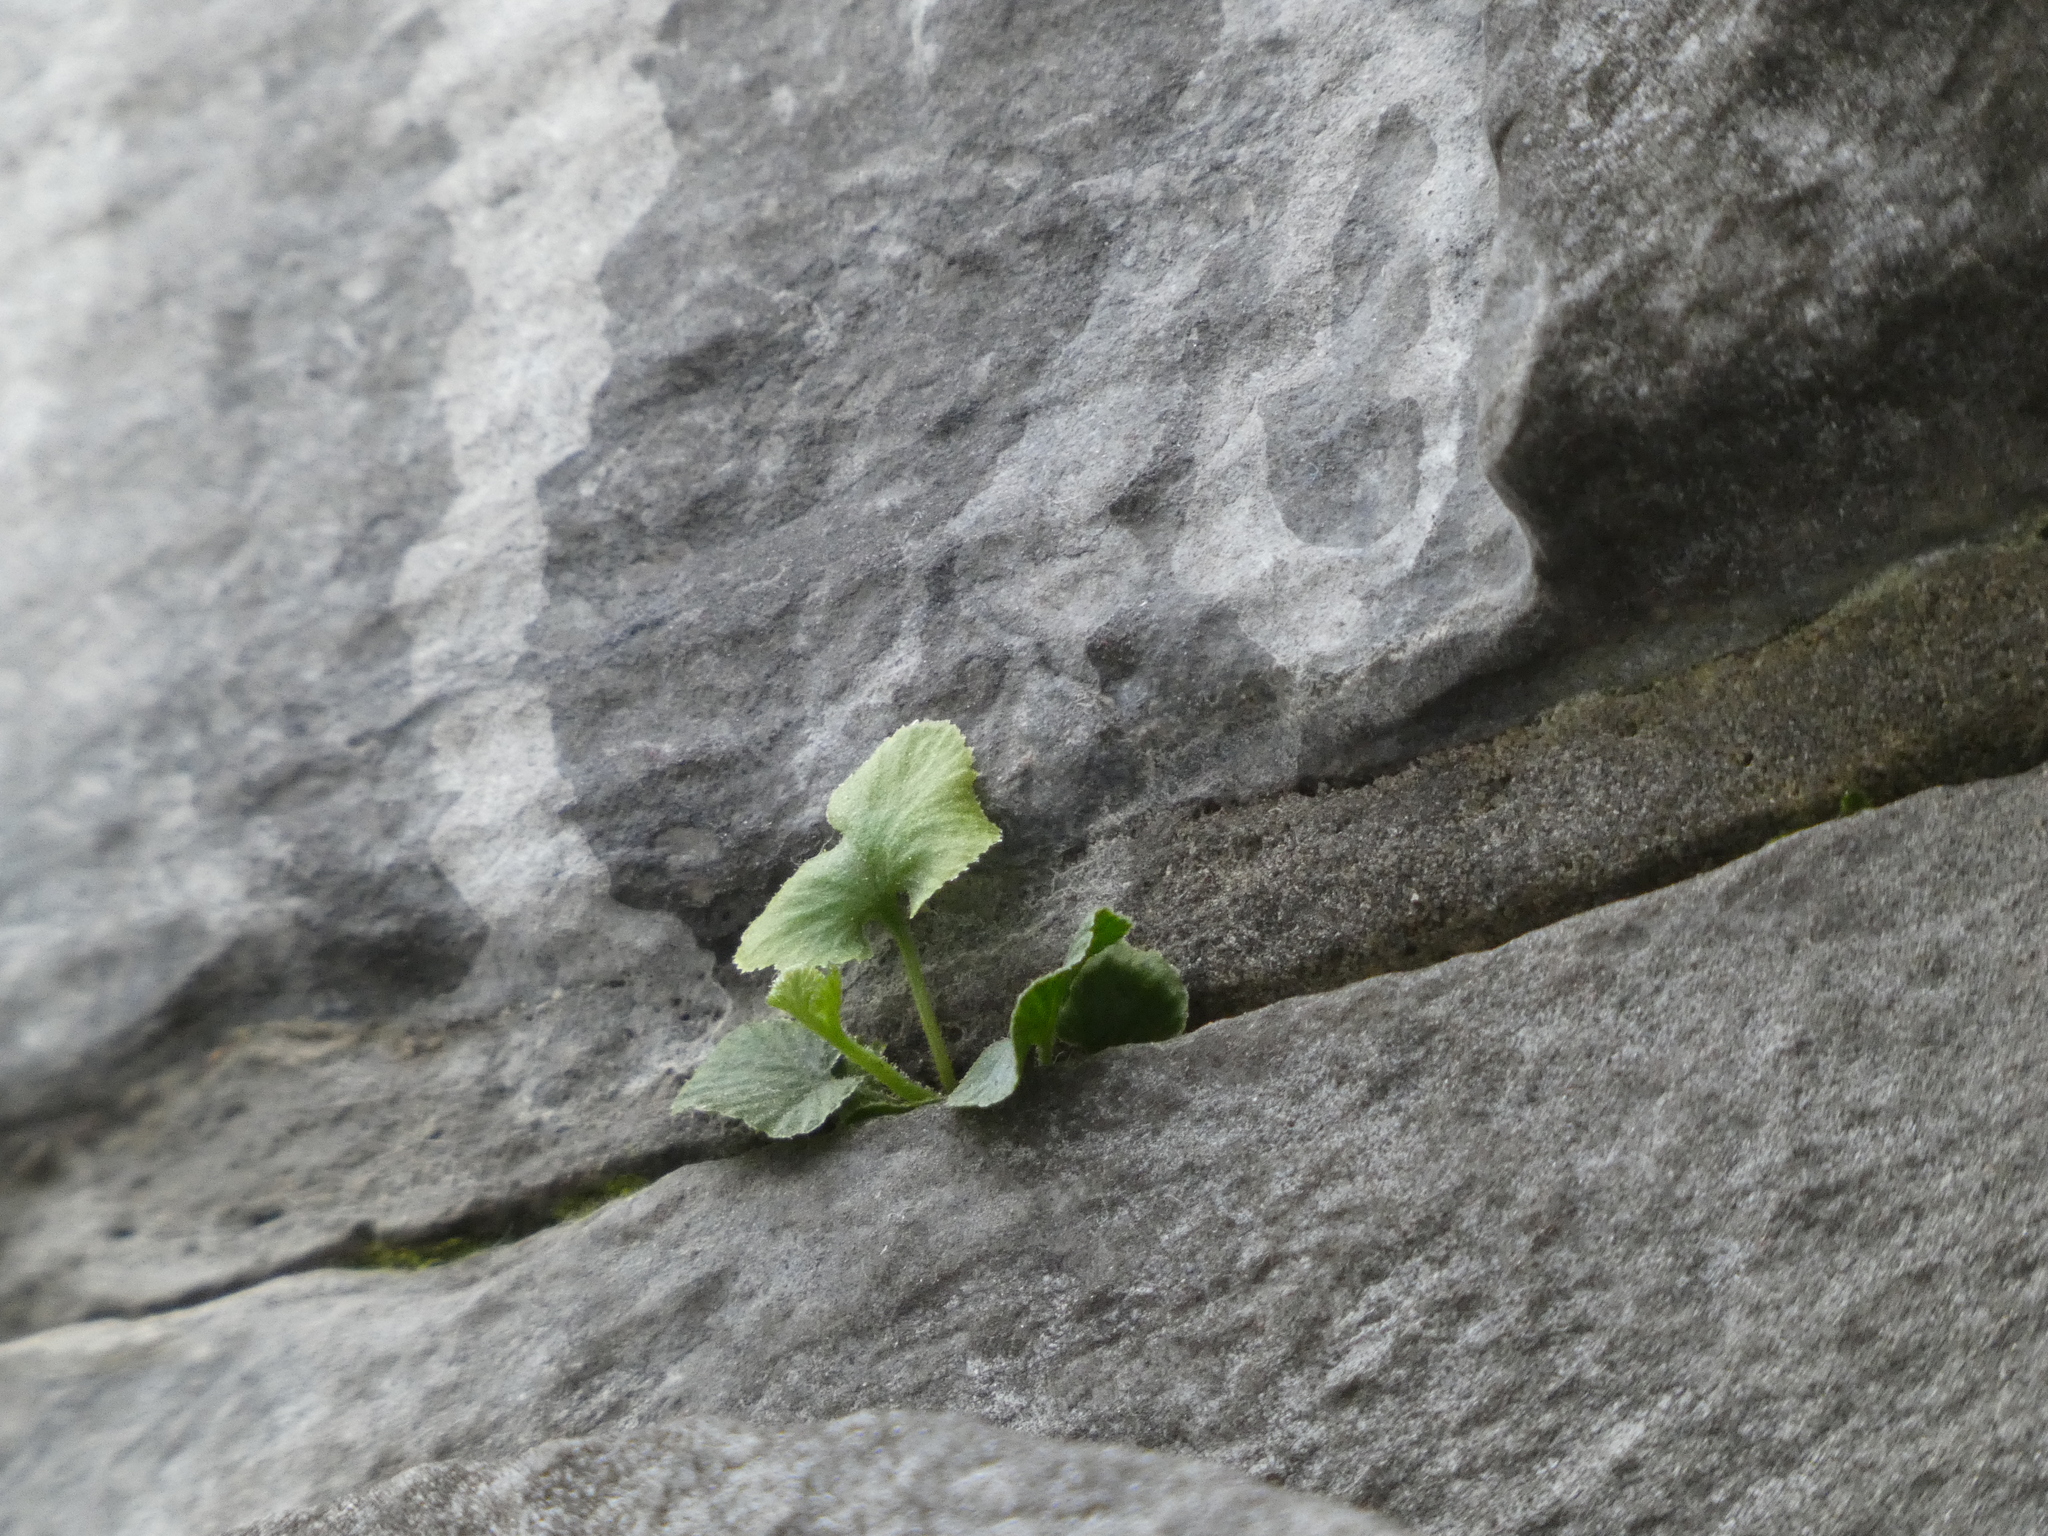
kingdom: Plantae
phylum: Tracheophyta
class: Polypodiopsida
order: Polypodiales
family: Aspleniaceae
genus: Asplenium
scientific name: Asplenium ruta-muraria
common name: Wall-rue
